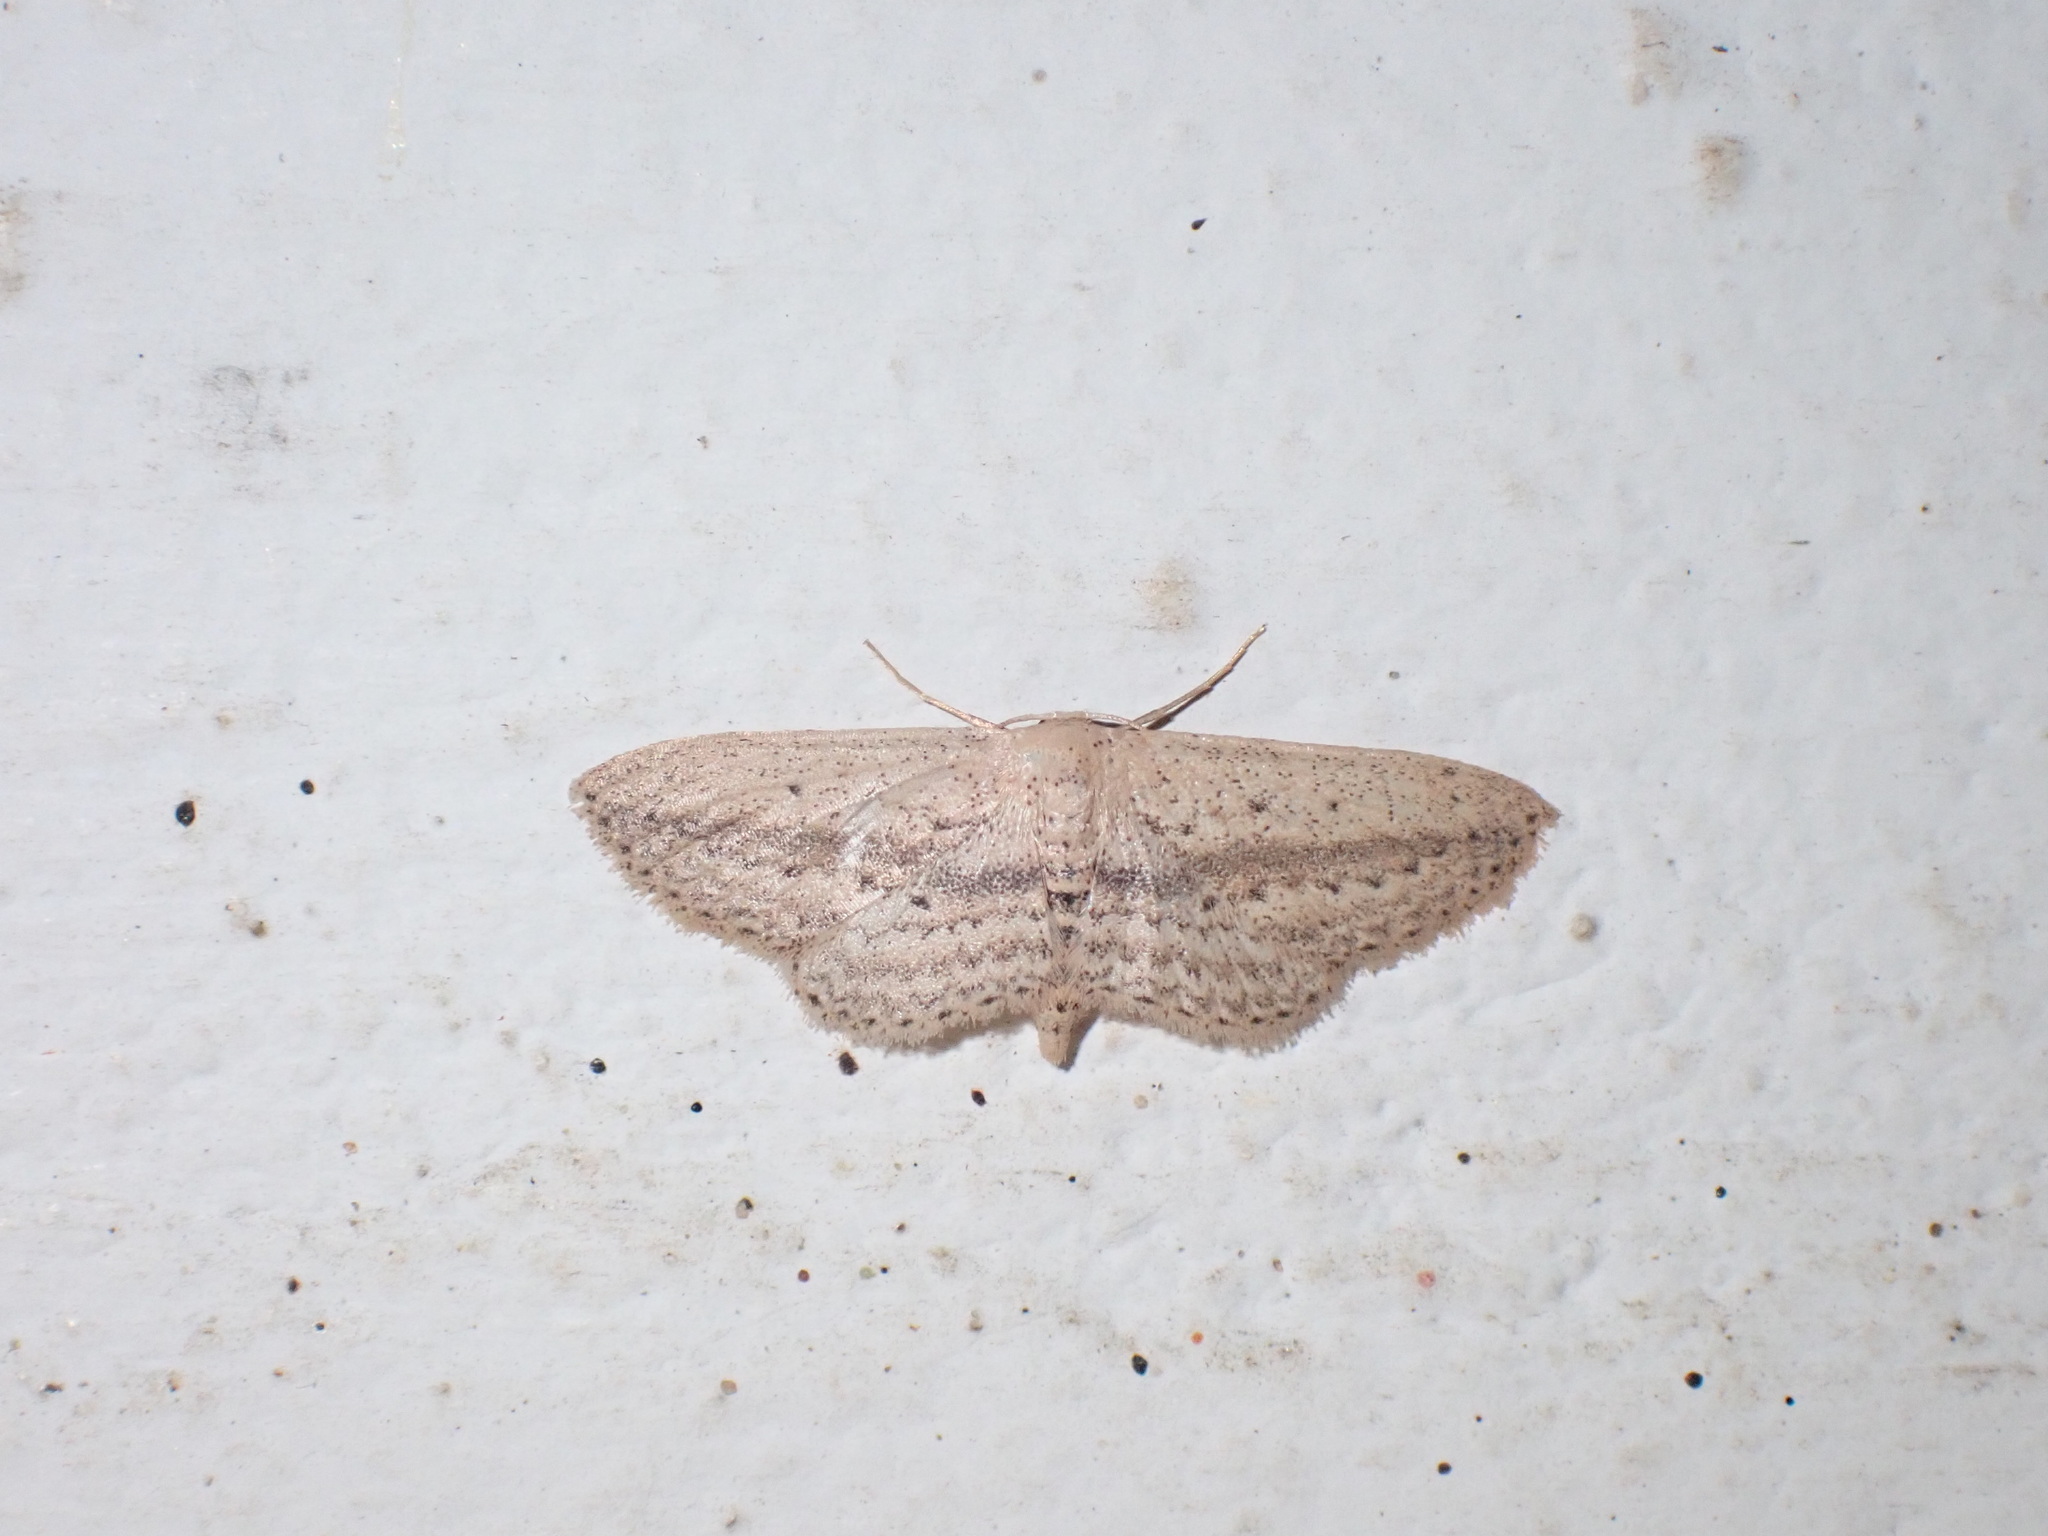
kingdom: Animalia
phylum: Arthropoda
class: Insecta
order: Lepidoptera
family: Geometridae
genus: Scopula
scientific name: Scopula emissaria
